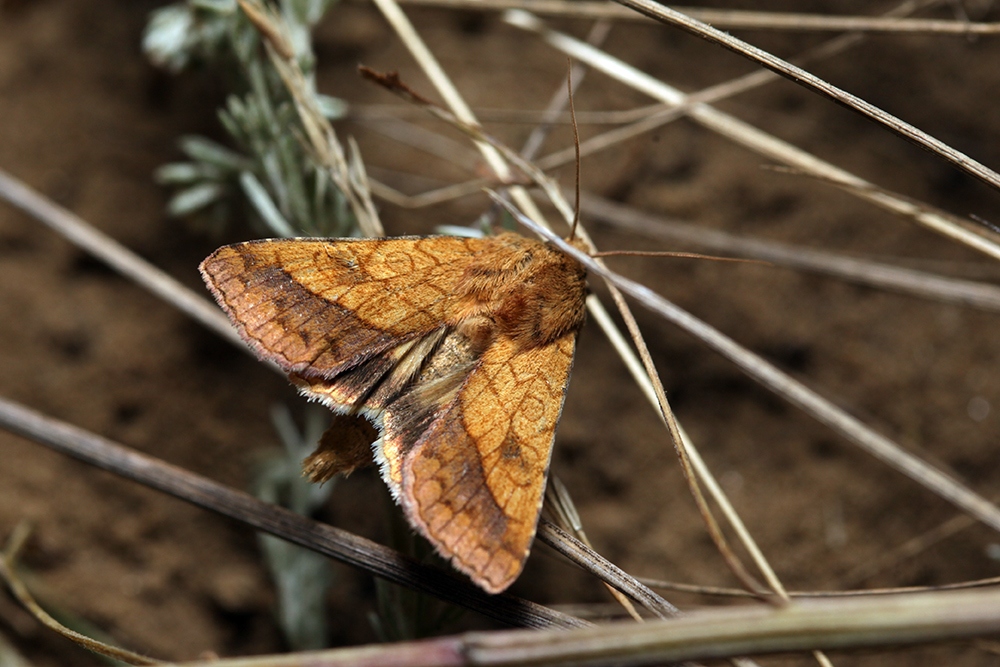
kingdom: Animalia
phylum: Arthropoda
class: Insecta
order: Lepidoptera
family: Noctuidae
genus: Pyrrhia
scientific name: Pyrrhia umbra
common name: Bordered sallow
